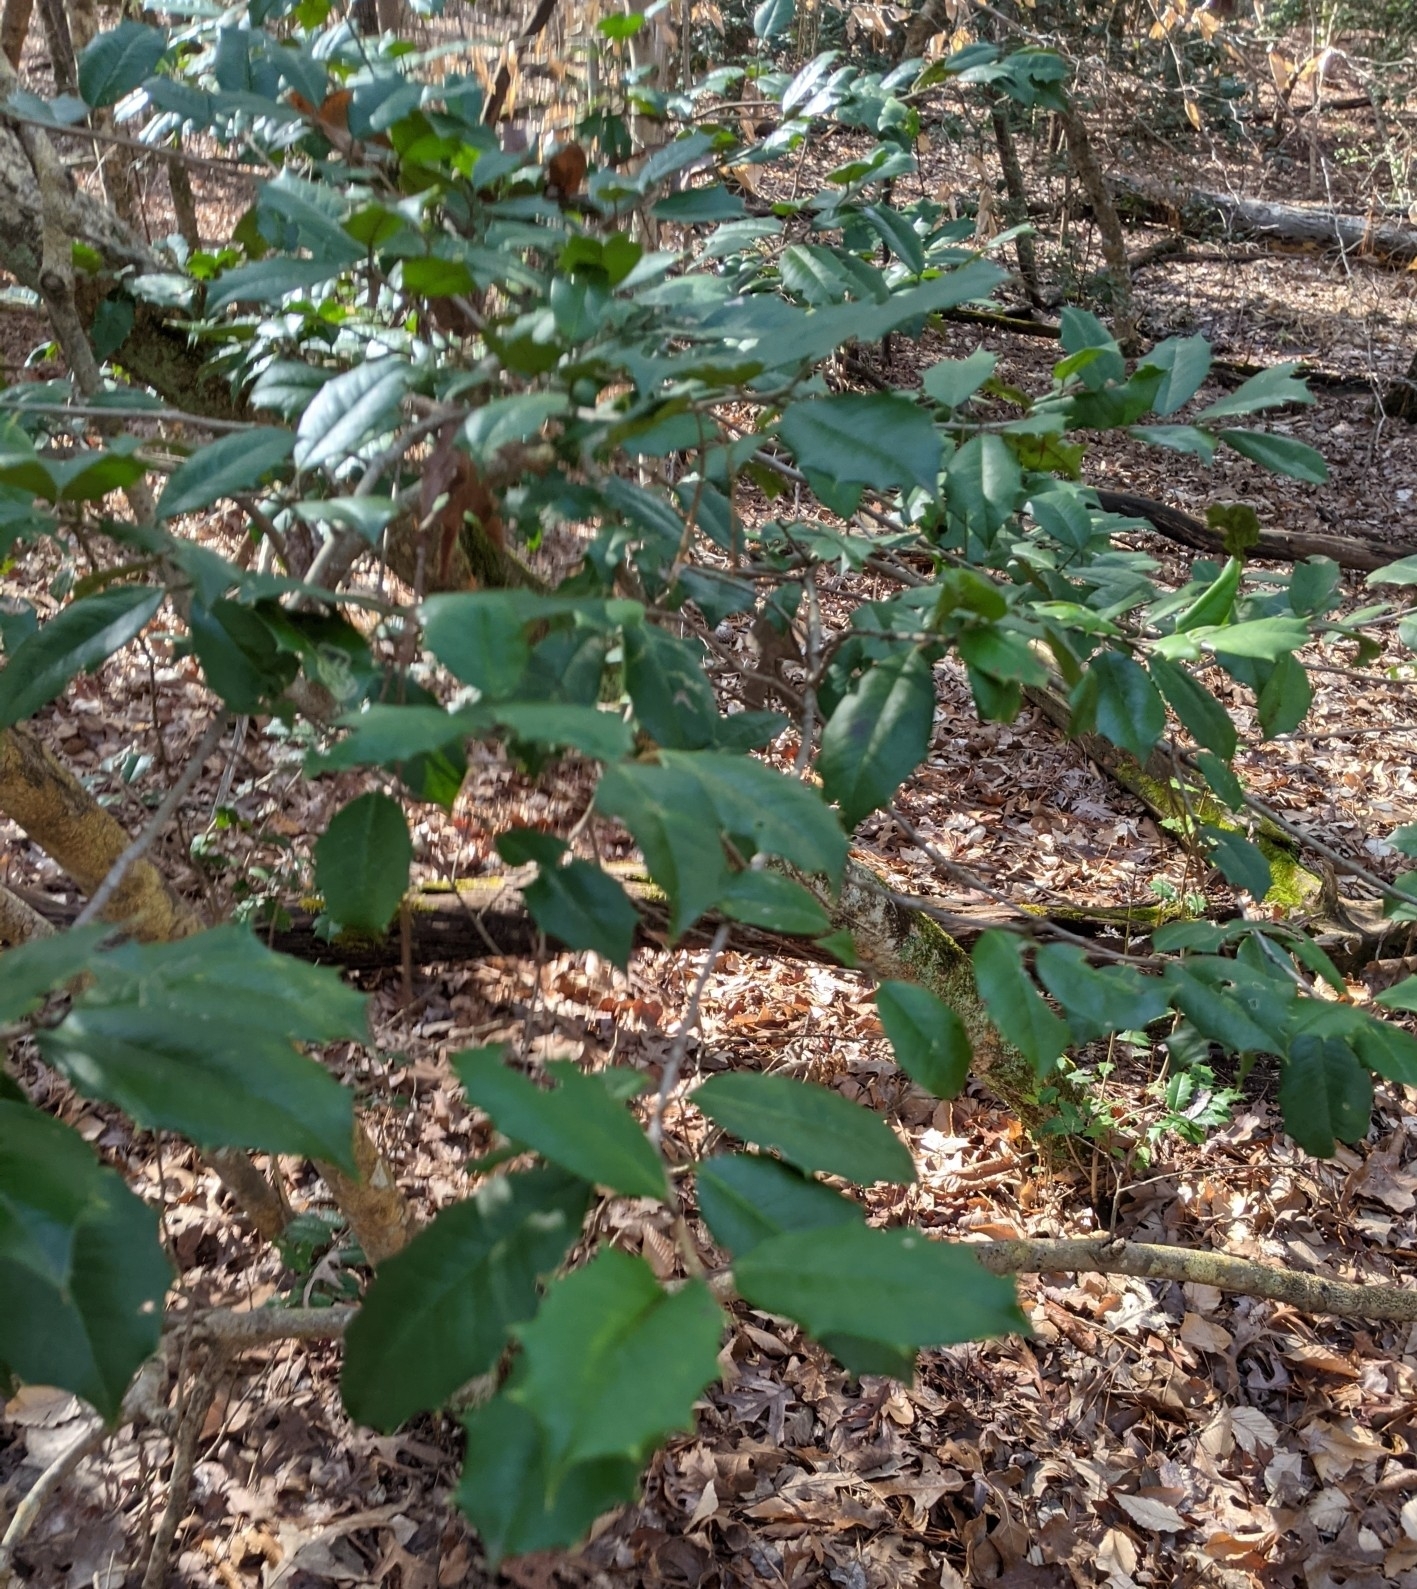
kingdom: Plantae
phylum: Tracheophyta
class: Magnoliopsida
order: Aquifoliales
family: Aquifoliaceae
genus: Ilex
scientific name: Ilex opaca
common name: American holly
